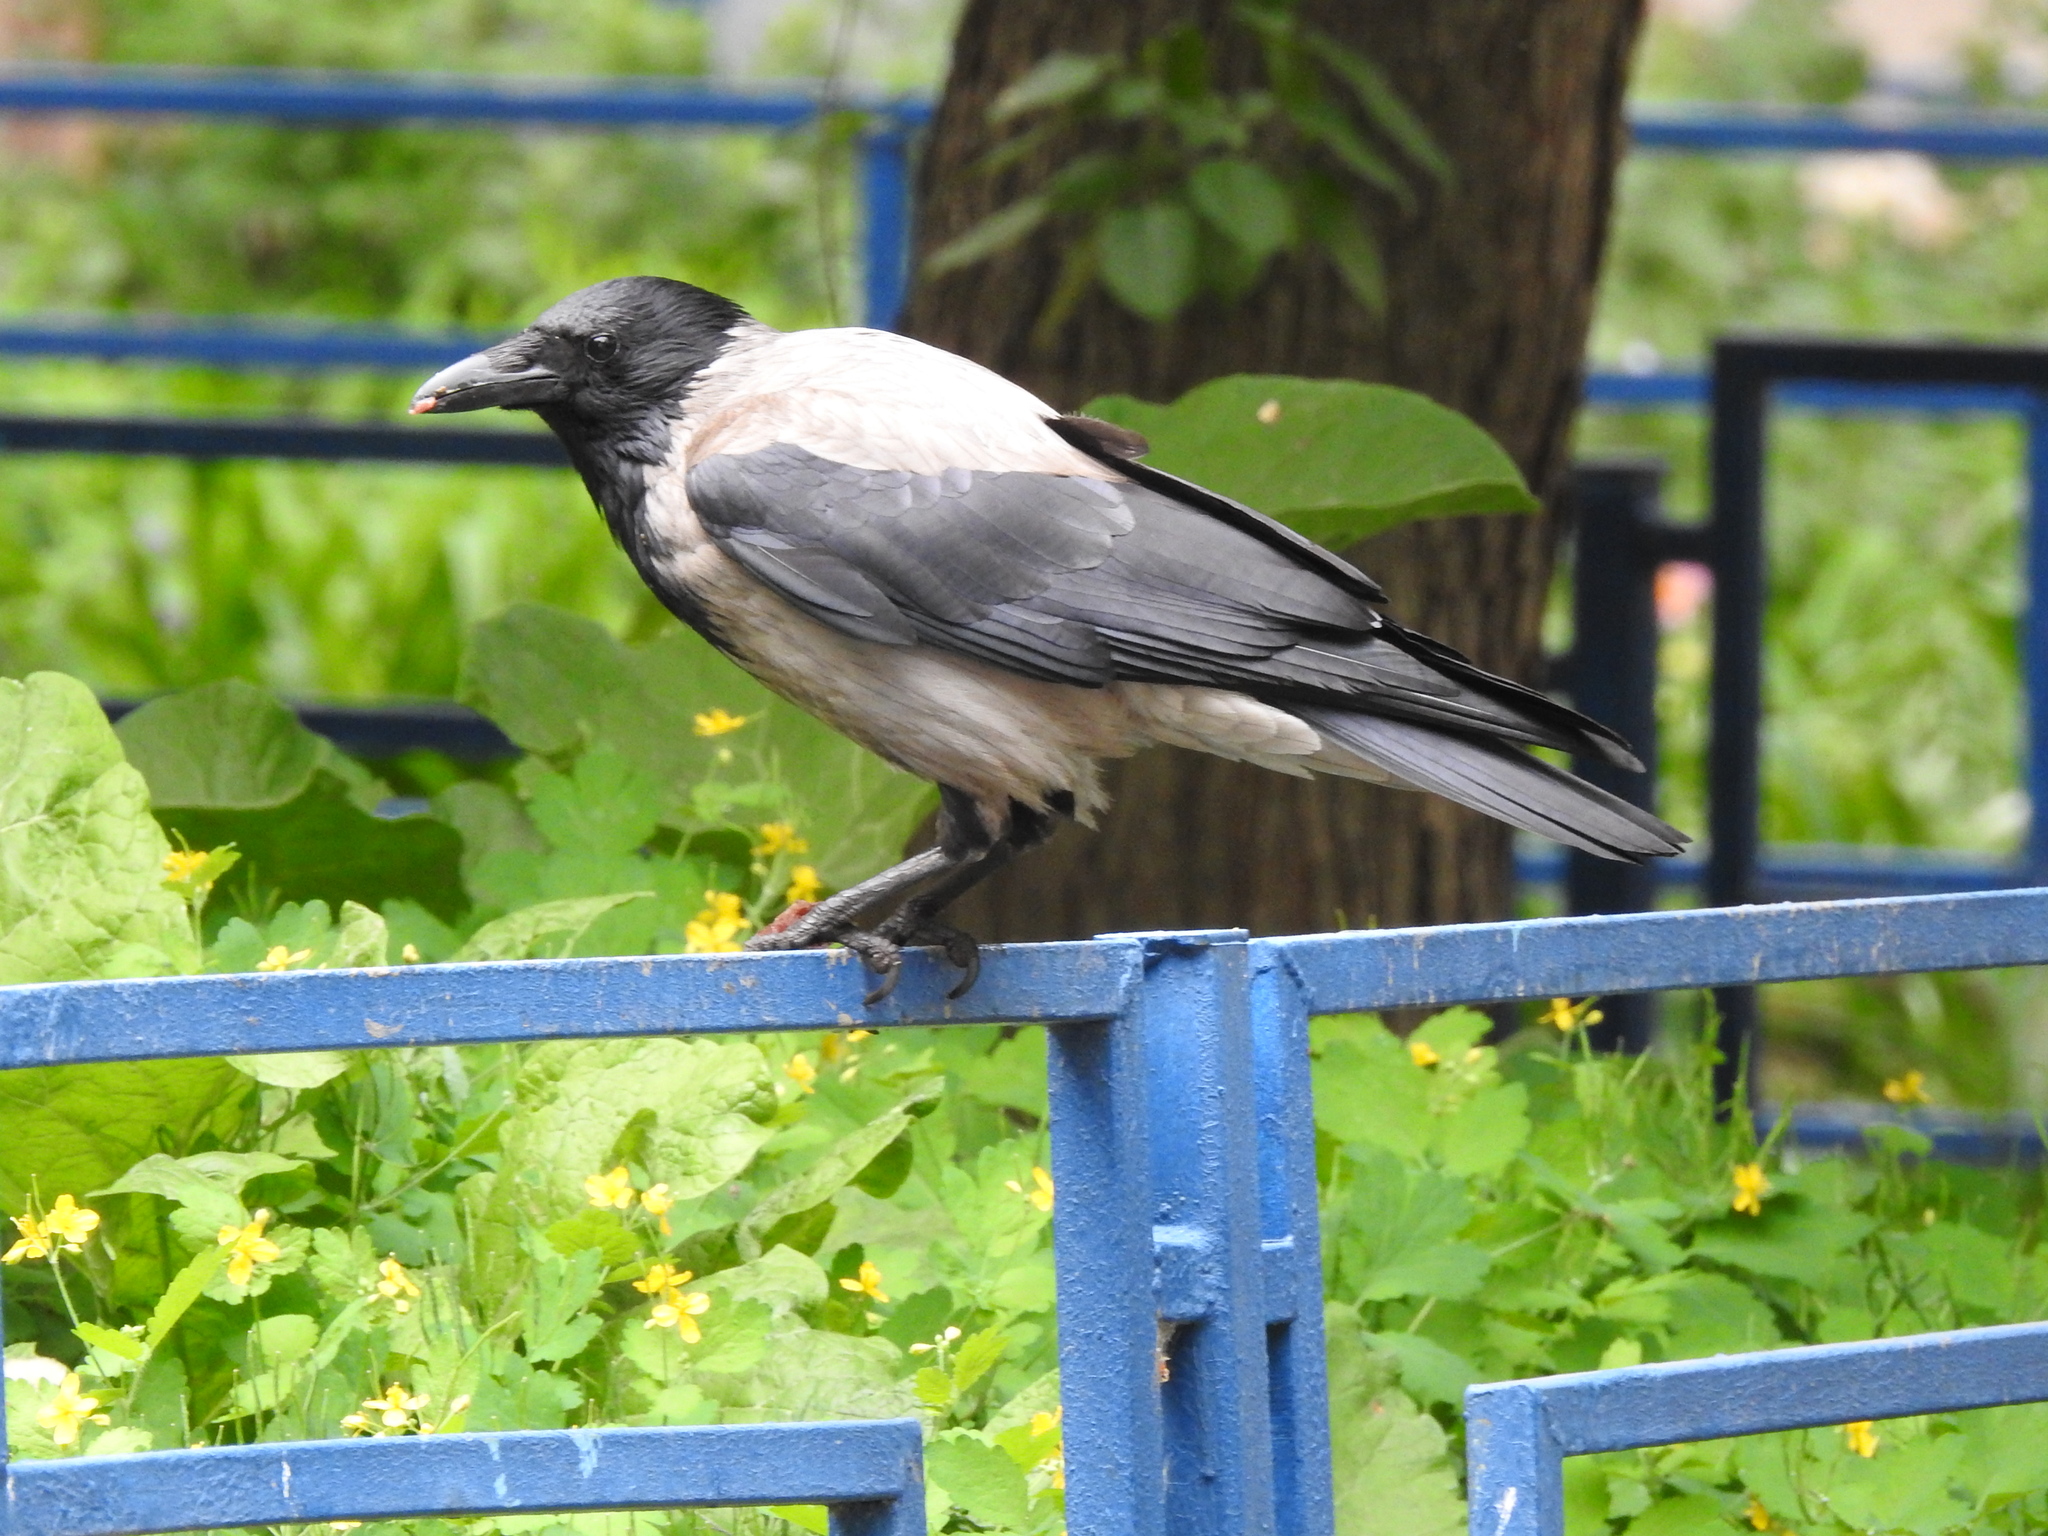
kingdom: Animalia
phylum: Chordata
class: Aves
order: Passeriformes
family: Corvidae
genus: Corvus
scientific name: Corvus cornix
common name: Hooded crow
